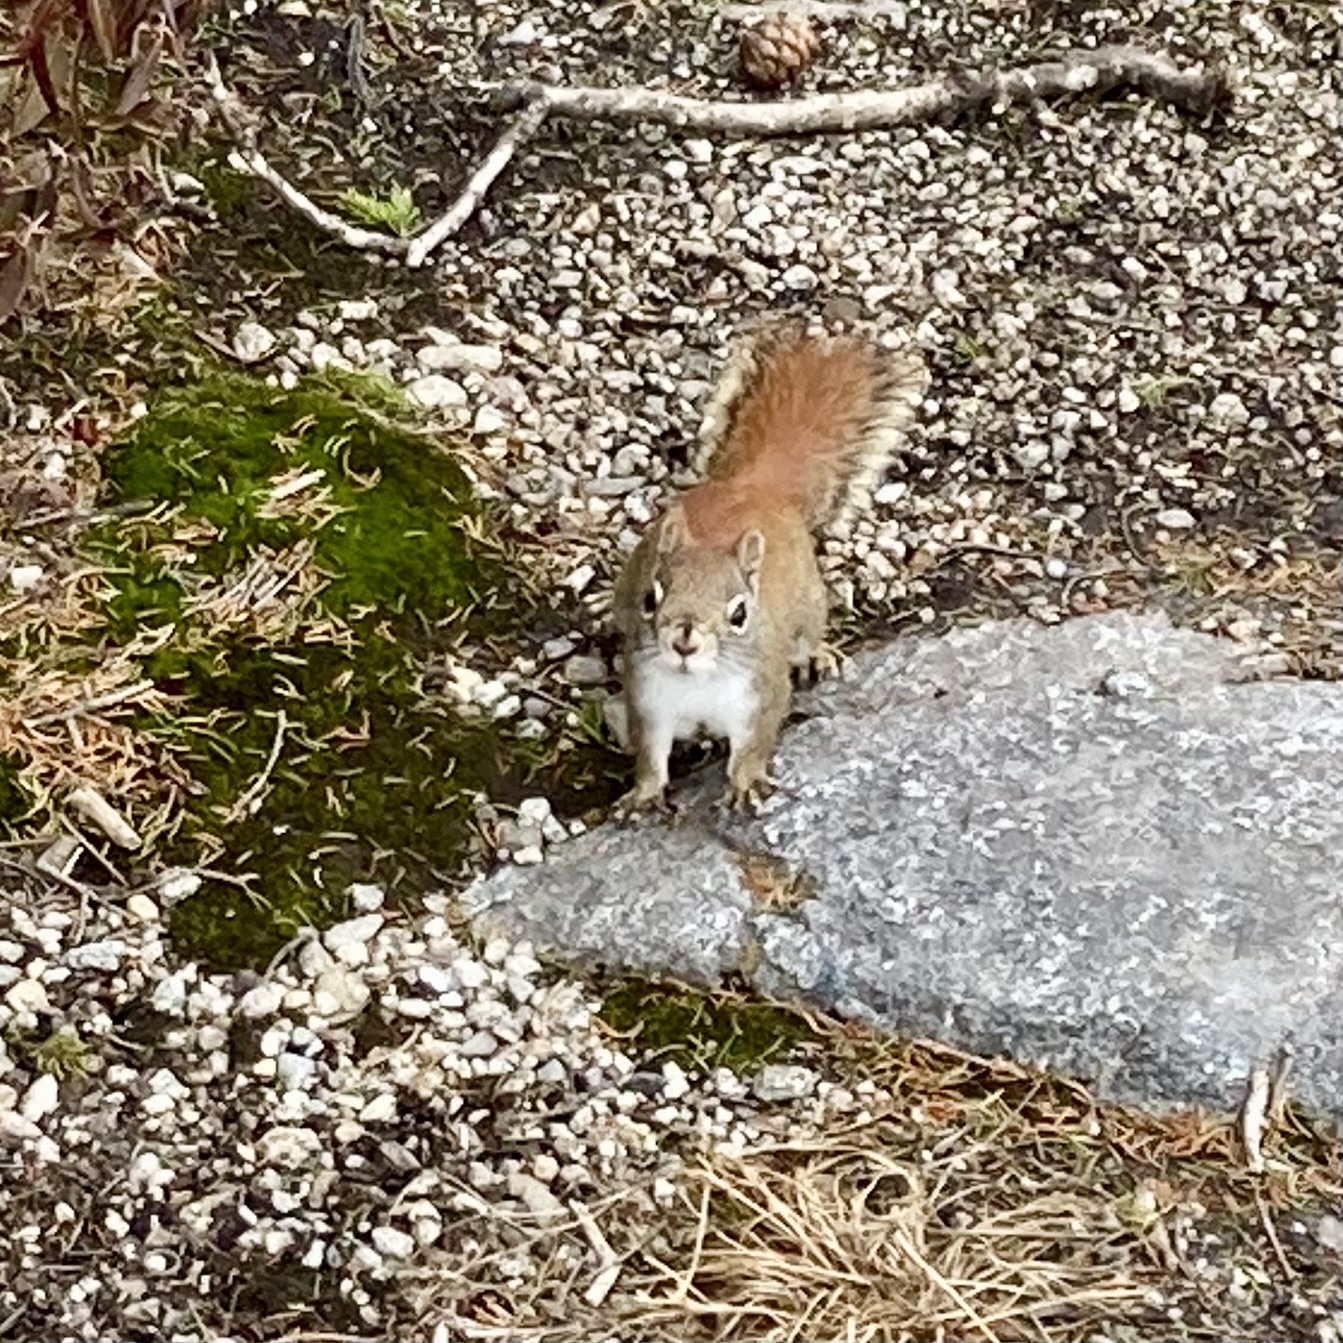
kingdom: Animalia
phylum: Chordata
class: Mammalia
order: Rodentia
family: Sciuridae
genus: Tamiasciurus
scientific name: Tamiasciurus hudsonicus
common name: Red squirrel
